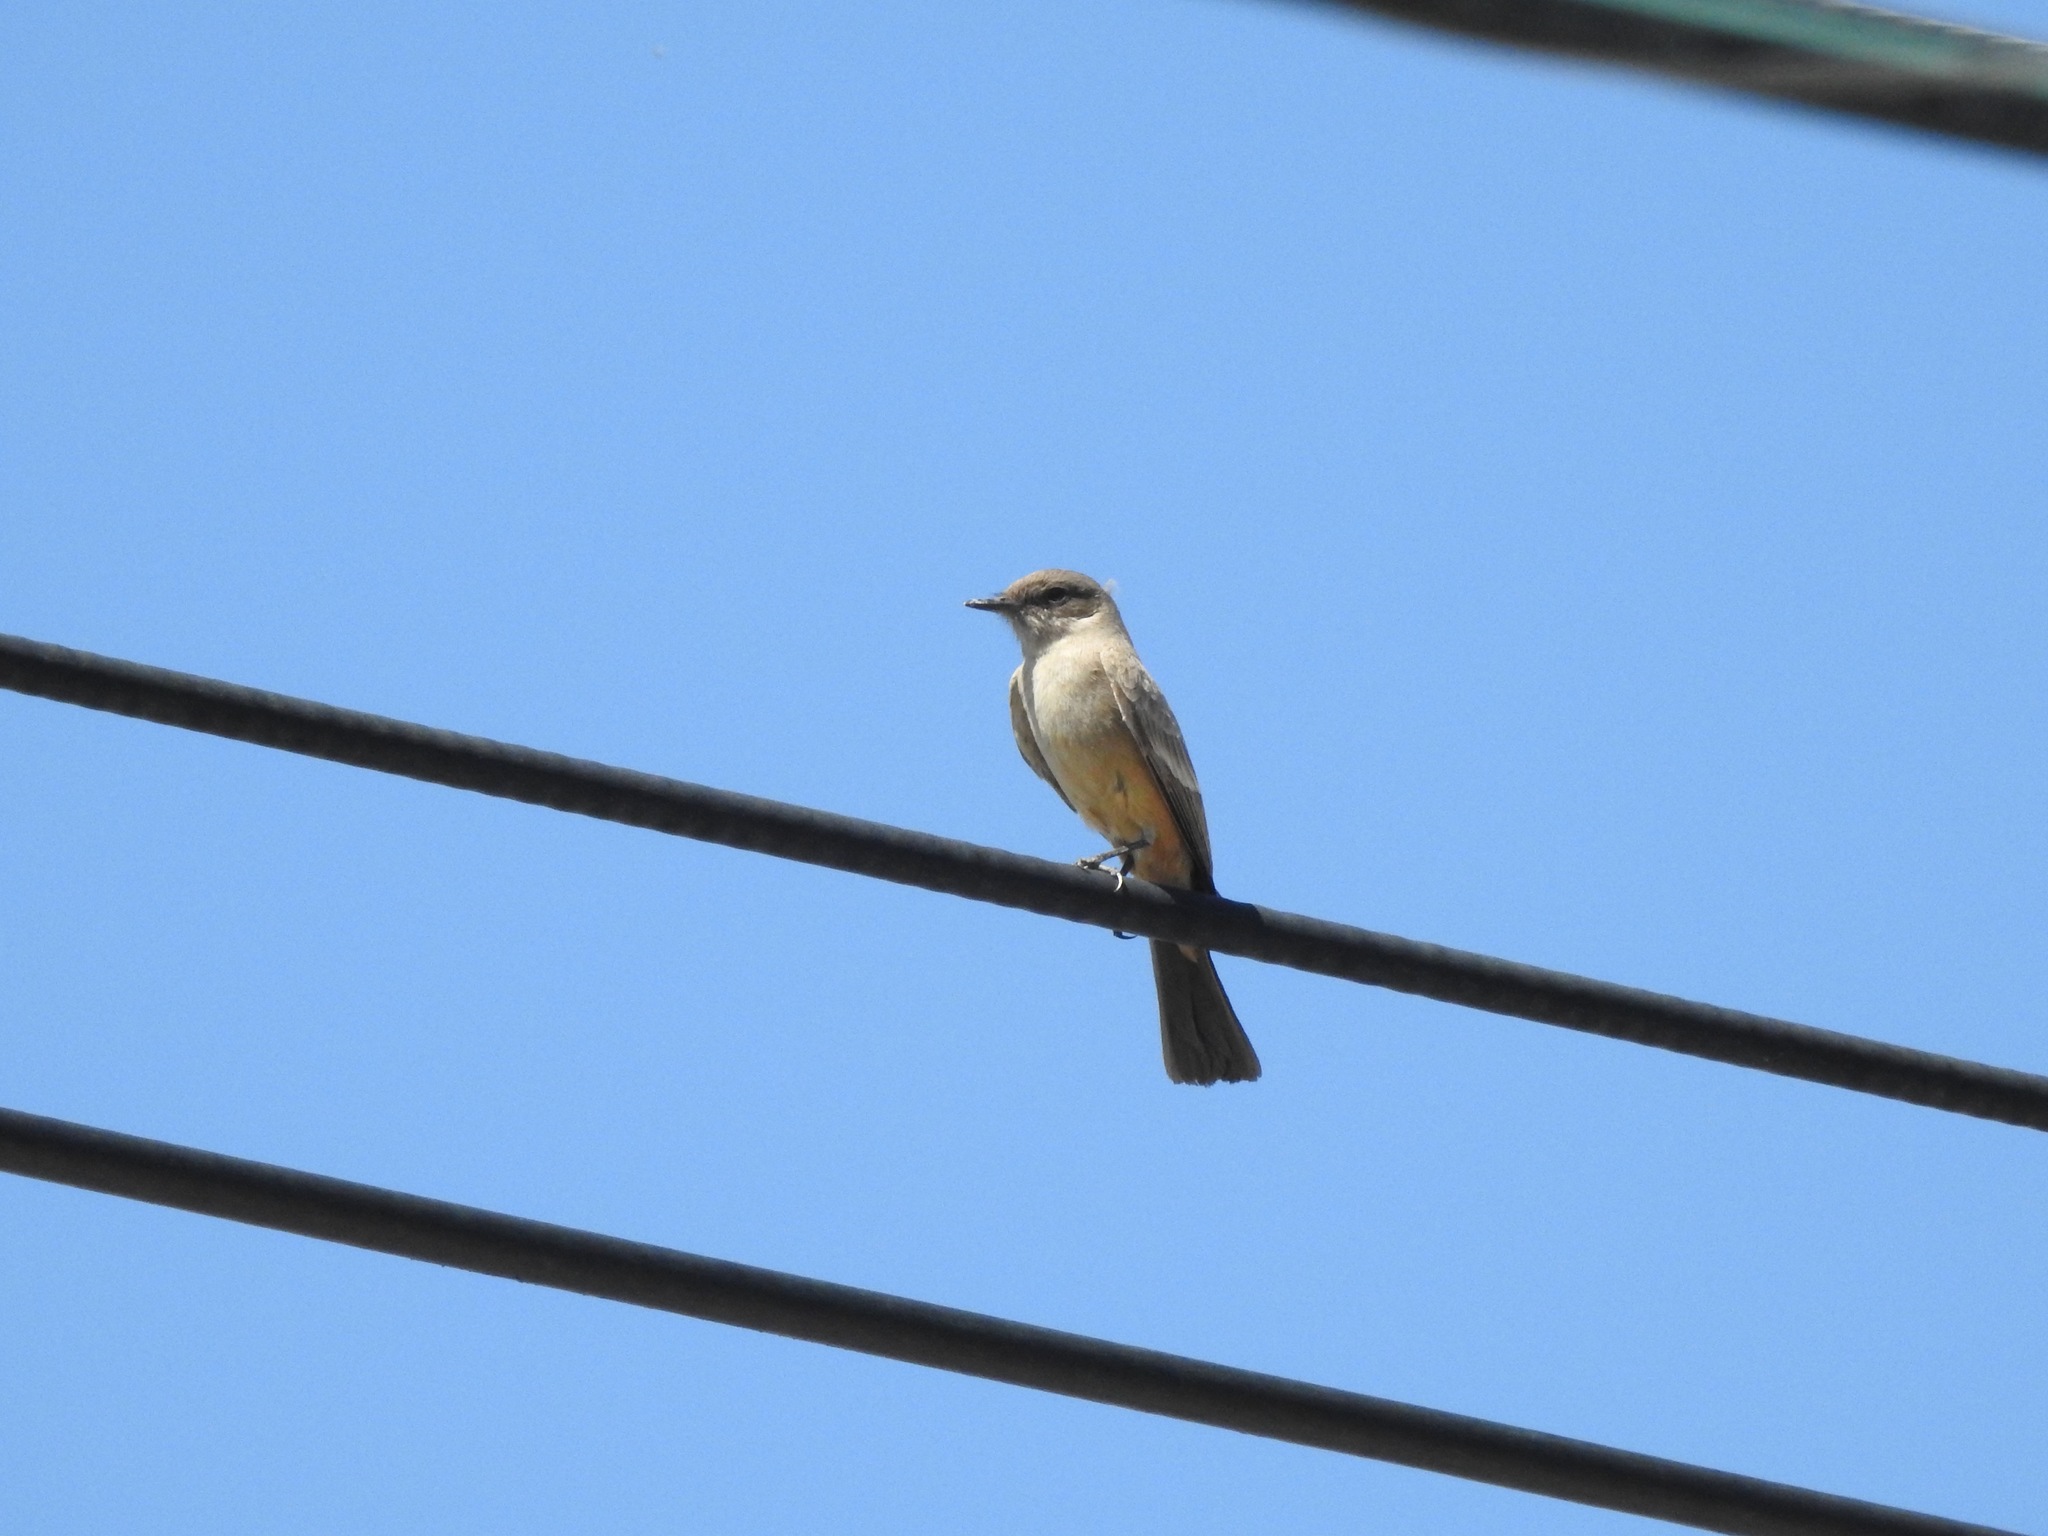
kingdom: Animalia
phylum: Chordata
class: Aves
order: Passeriformes
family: Tyrannidae
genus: Sayornis
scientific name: Sayornis saya
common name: Say's phoebe
